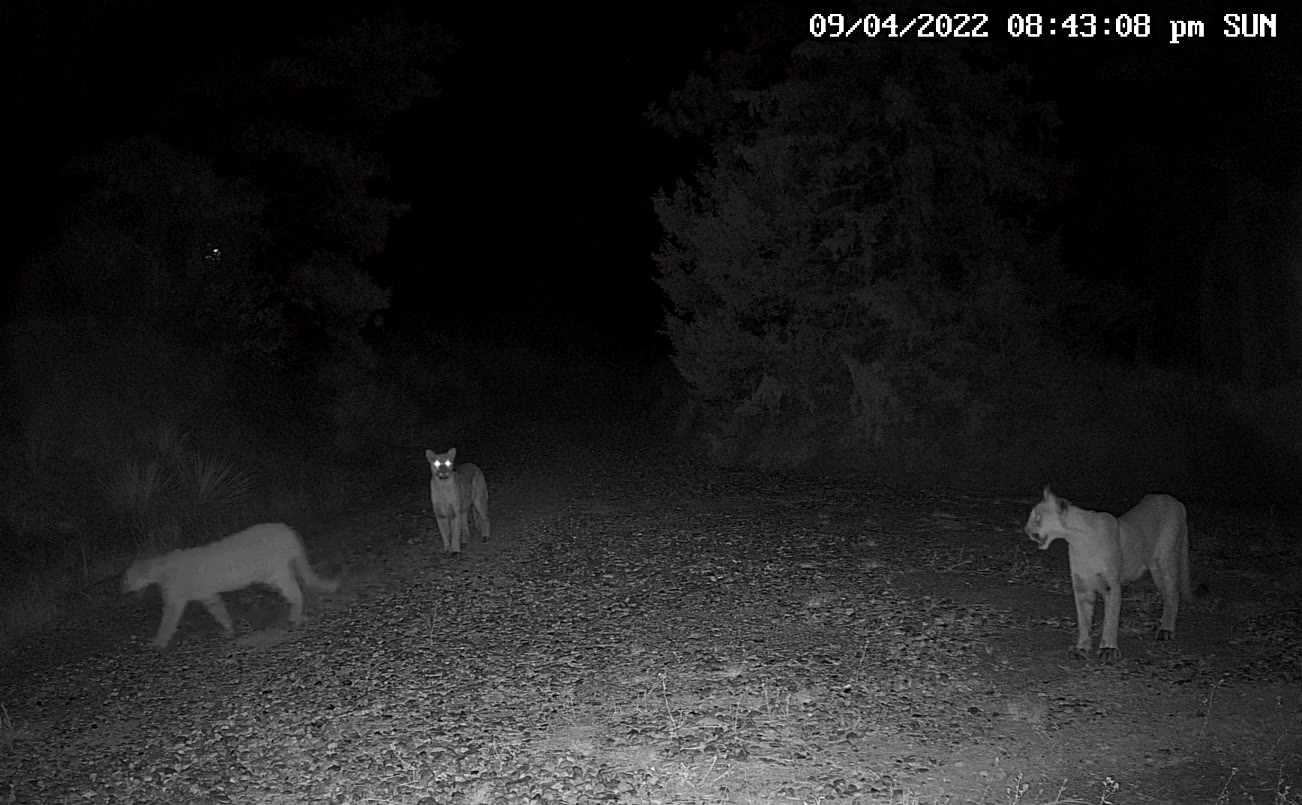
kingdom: Animalia
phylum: Chordata
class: Mammalia
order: Carnivora
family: Felidae
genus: Puma
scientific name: Puma concolor
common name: Puma
